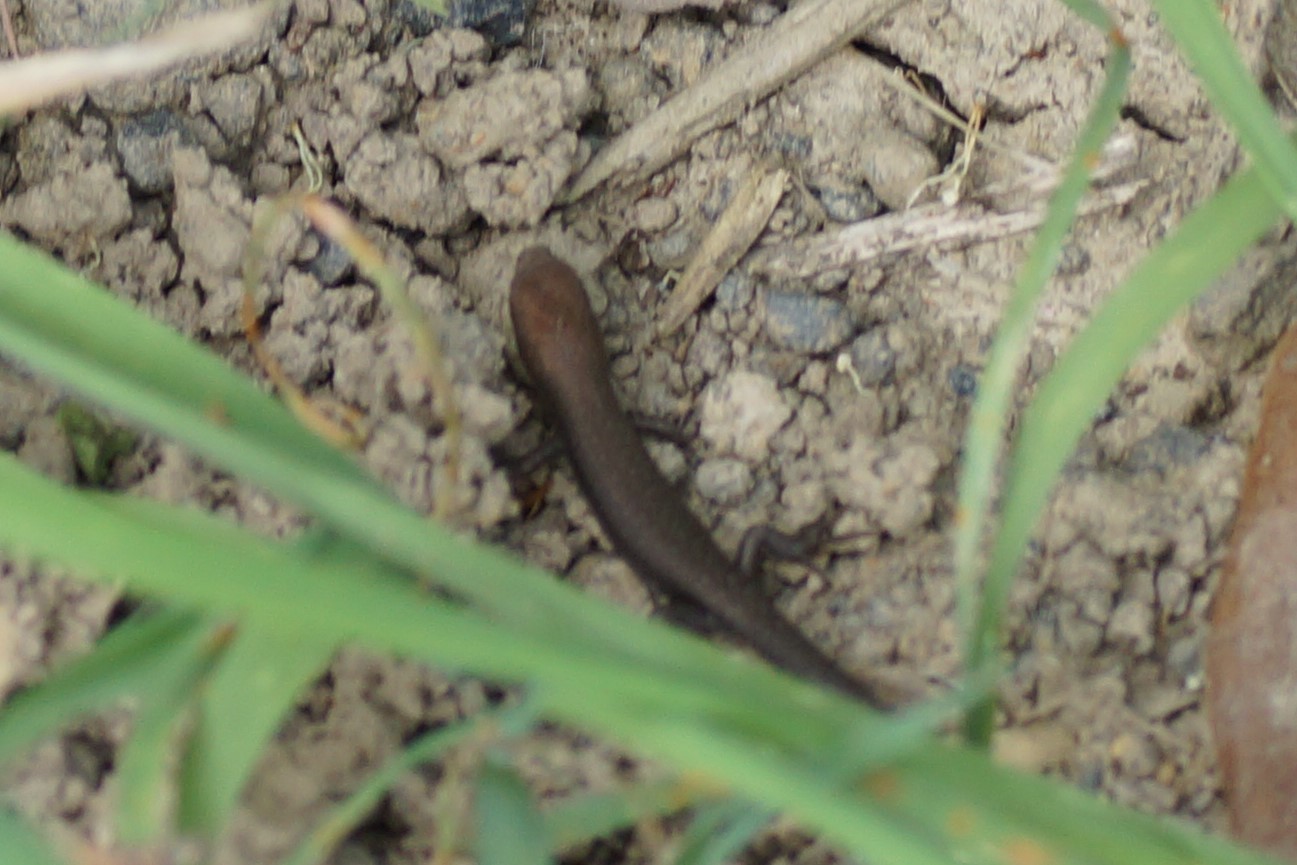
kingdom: Animalia
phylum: Chordata
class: Squamata
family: Scincidae
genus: Lampropholis
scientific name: Lampropholis guichenoti
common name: Garden skink
